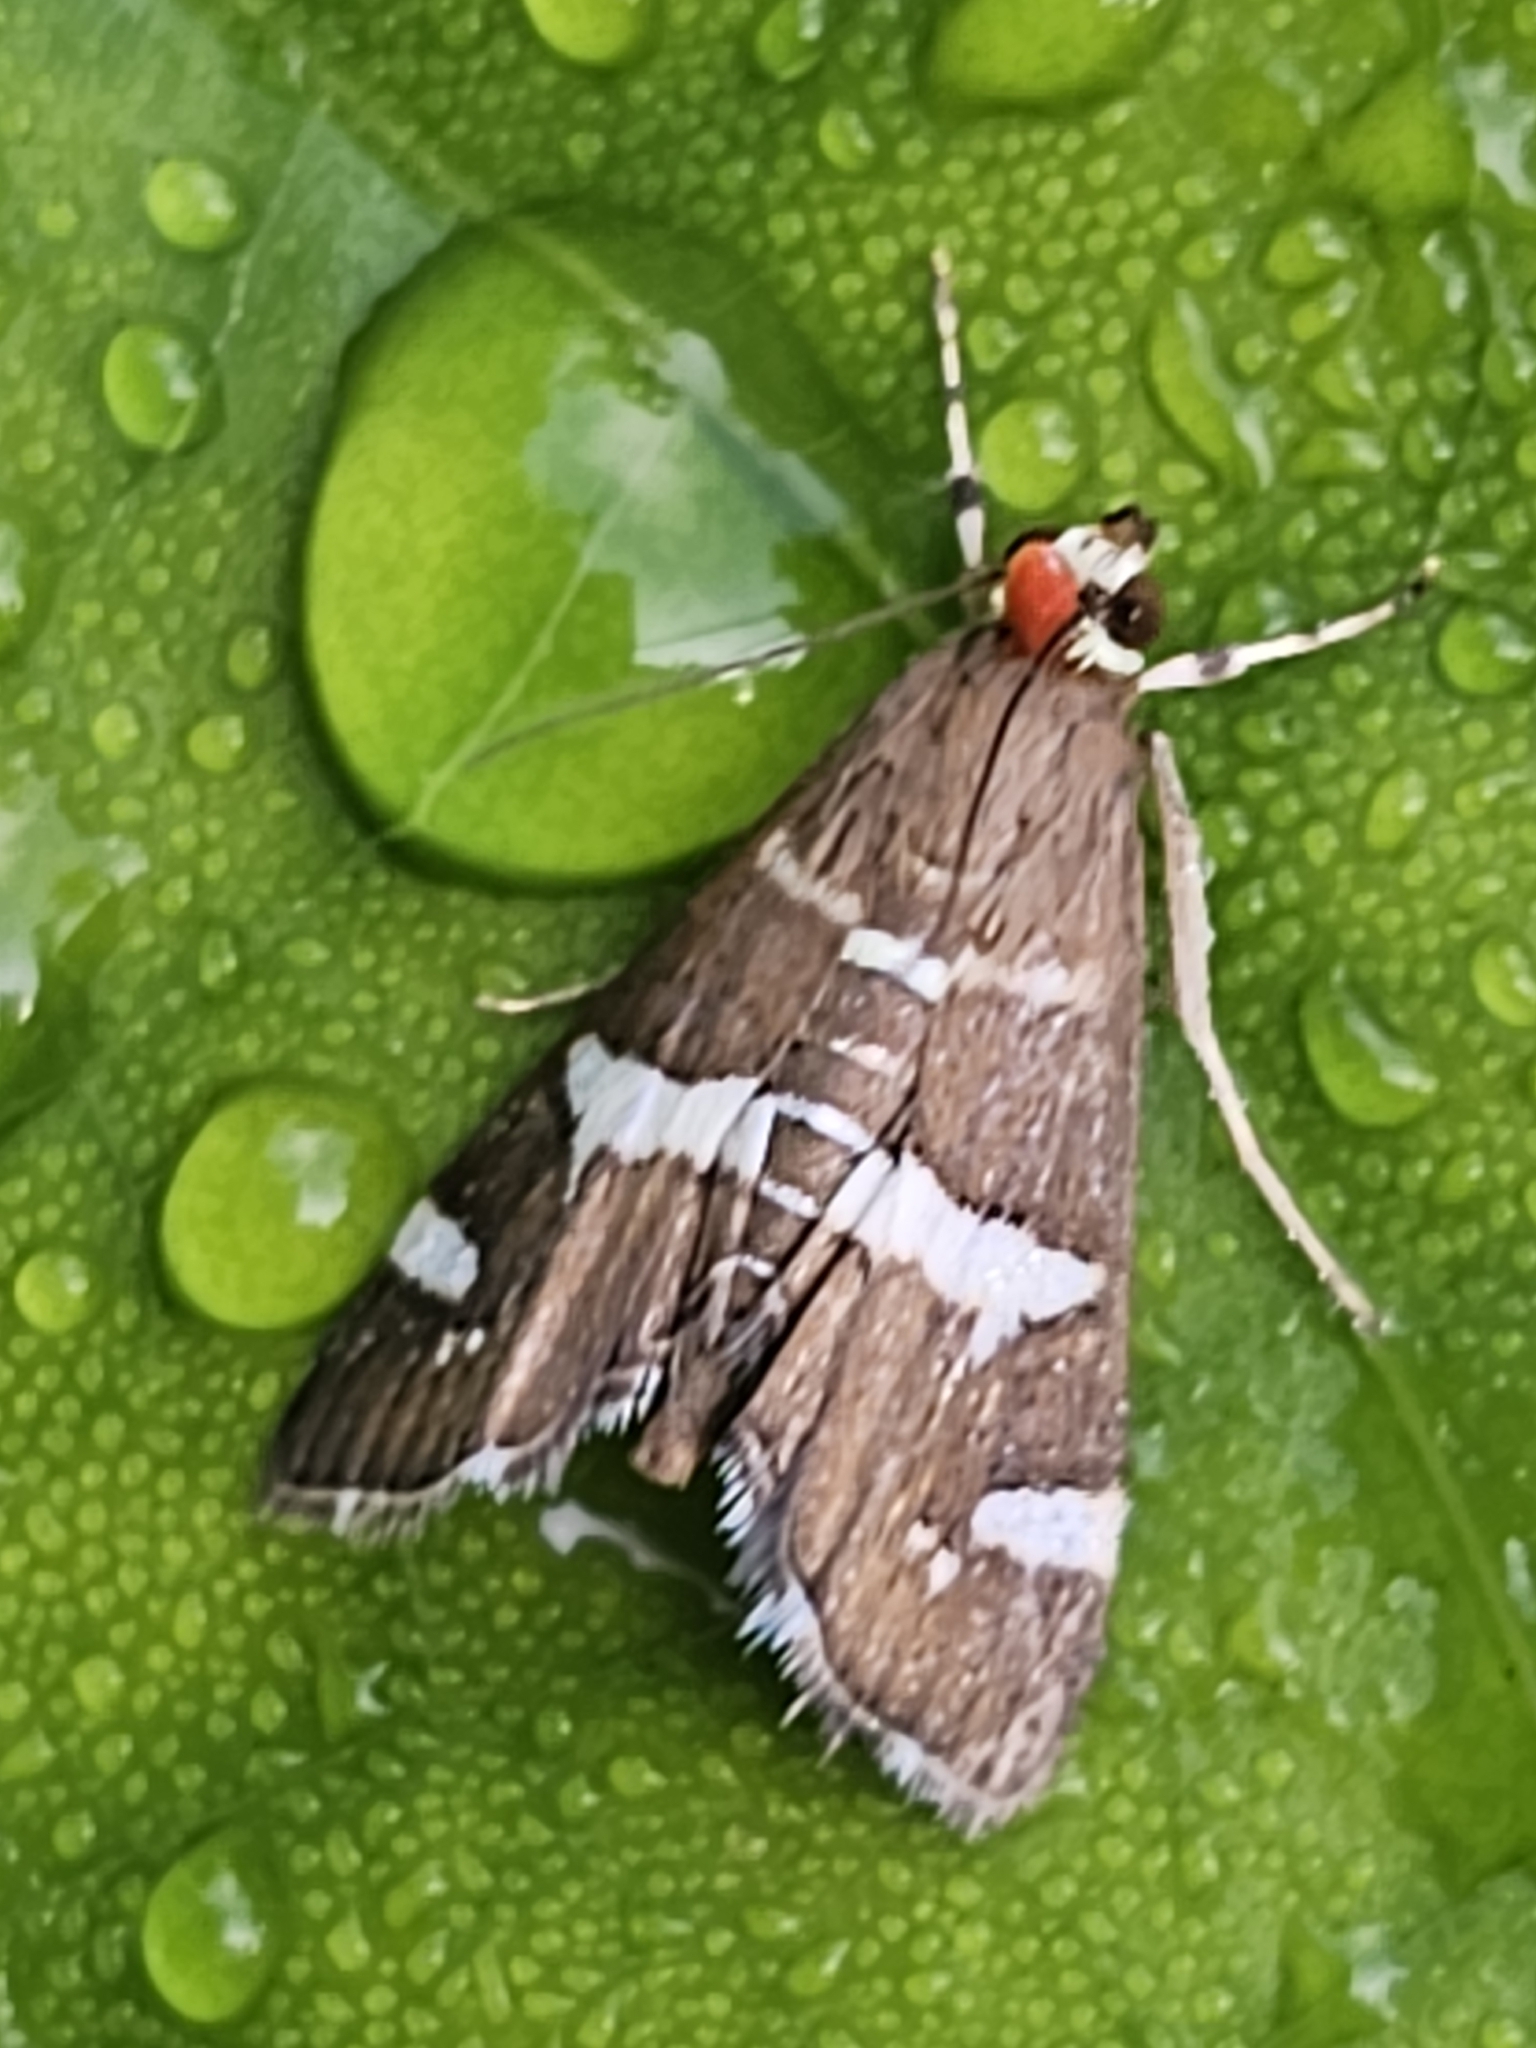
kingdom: Animalia
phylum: Arthropoda
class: Insecta
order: Lepidoptera
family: Crambidae
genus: Spoladea
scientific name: Spoladea recurvalis
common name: Beet webworm moth
